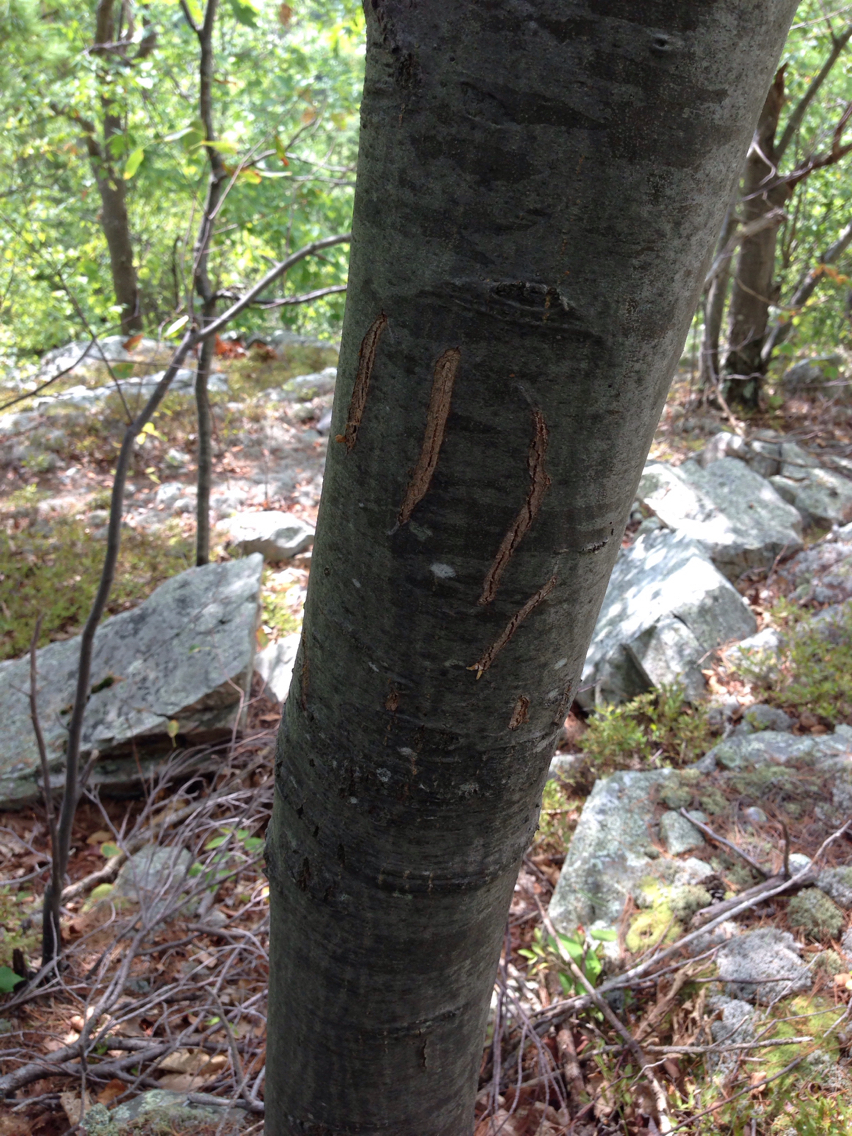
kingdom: Animalia
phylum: Chordata
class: Mammalia
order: Carnivora
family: Ursidae
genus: Ursus
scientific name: Ursus americanus
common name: American black bear
